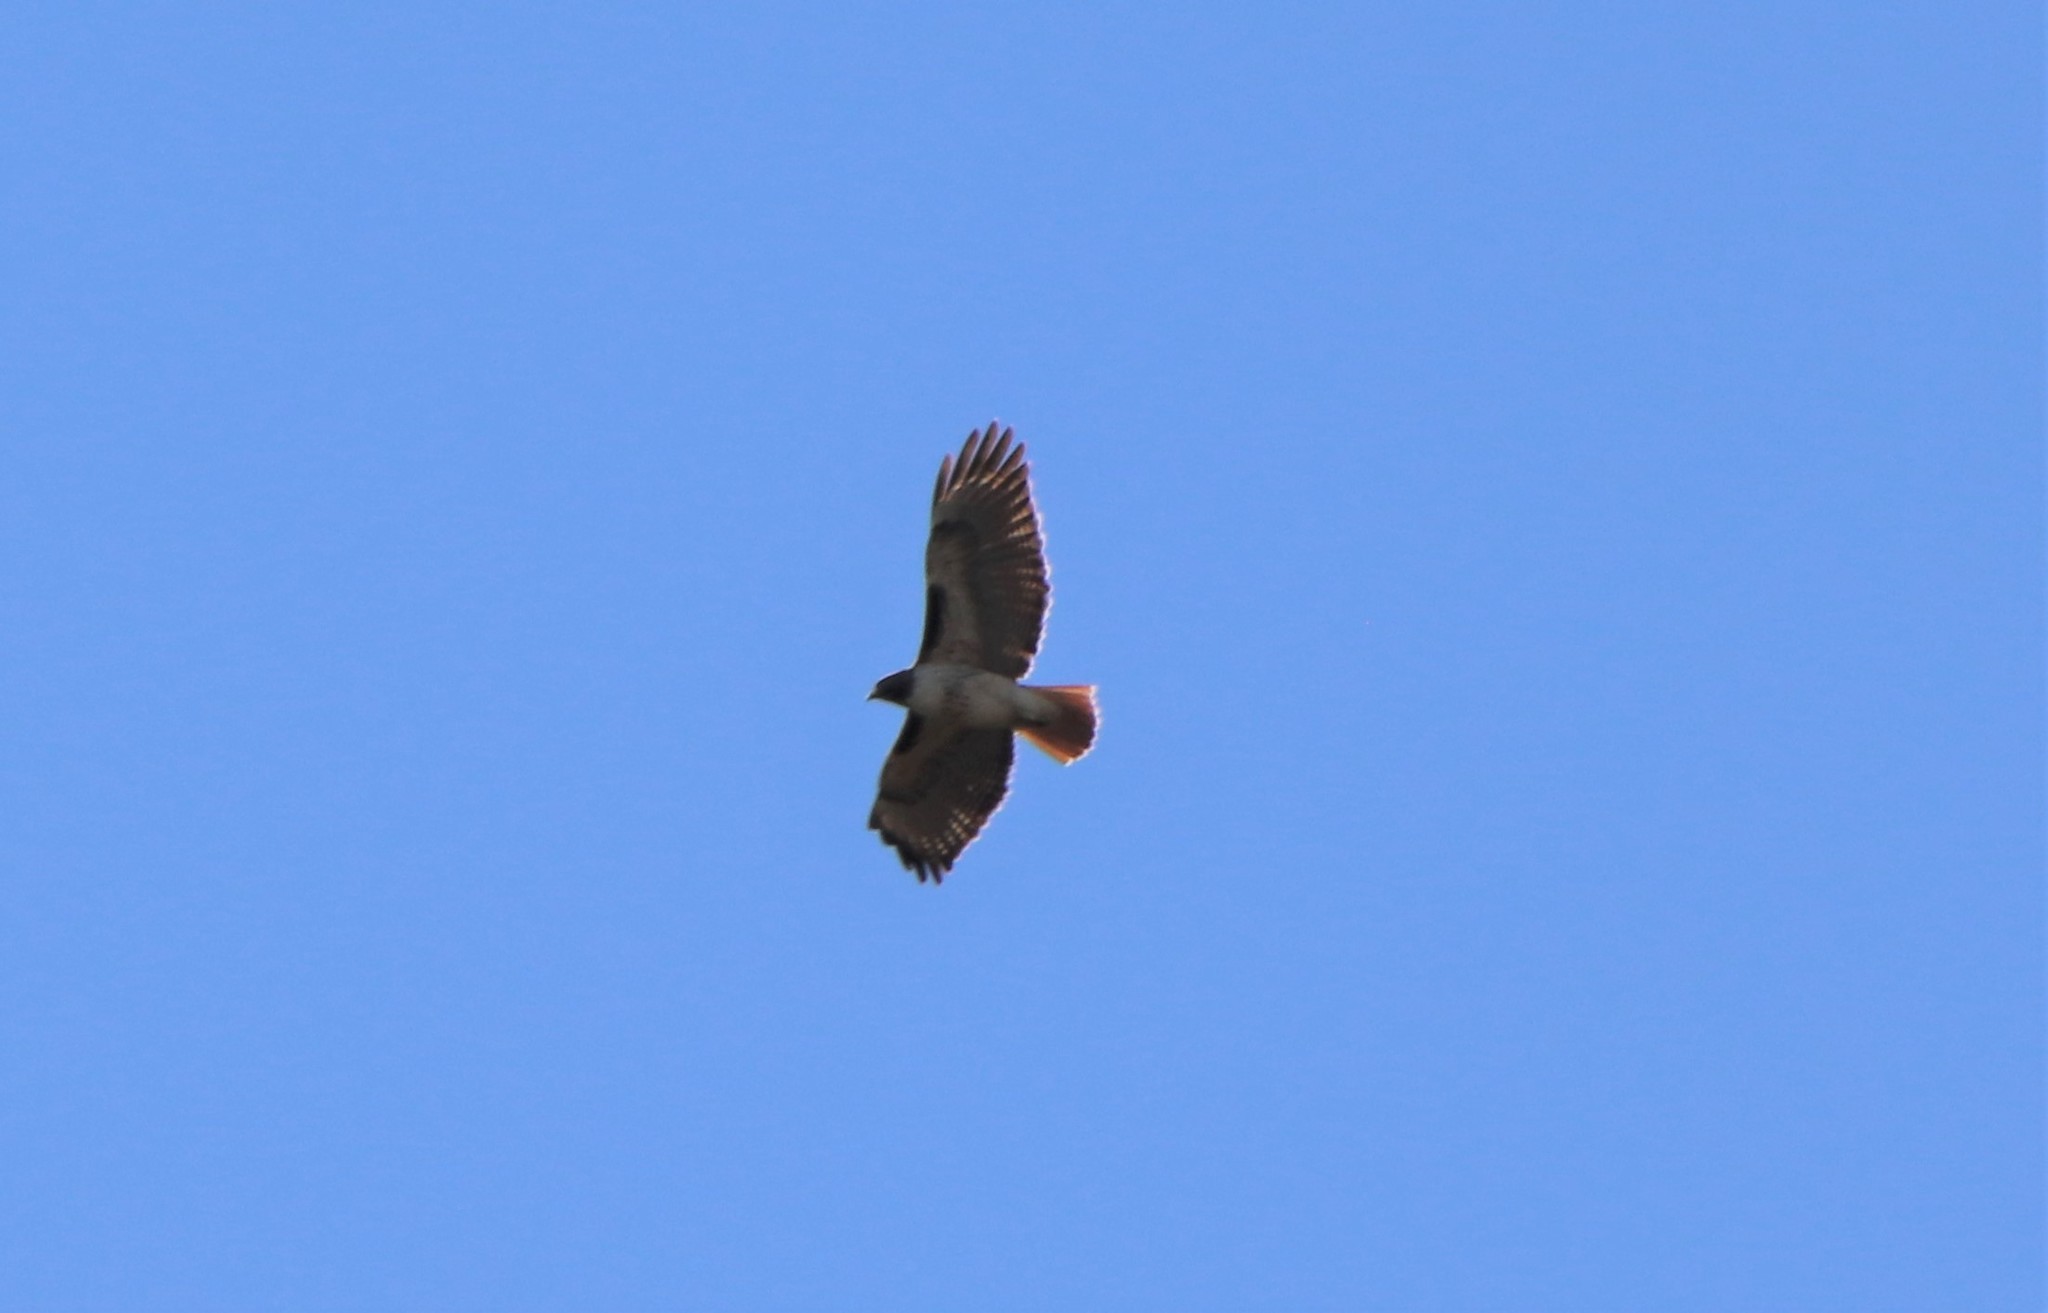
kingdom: Animalia
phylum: Chordata
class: Aves
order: Accipitriformes
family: Accipitridae
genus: Buteo
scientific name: Buteo jamaicensis
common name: Red-tailed hawk
